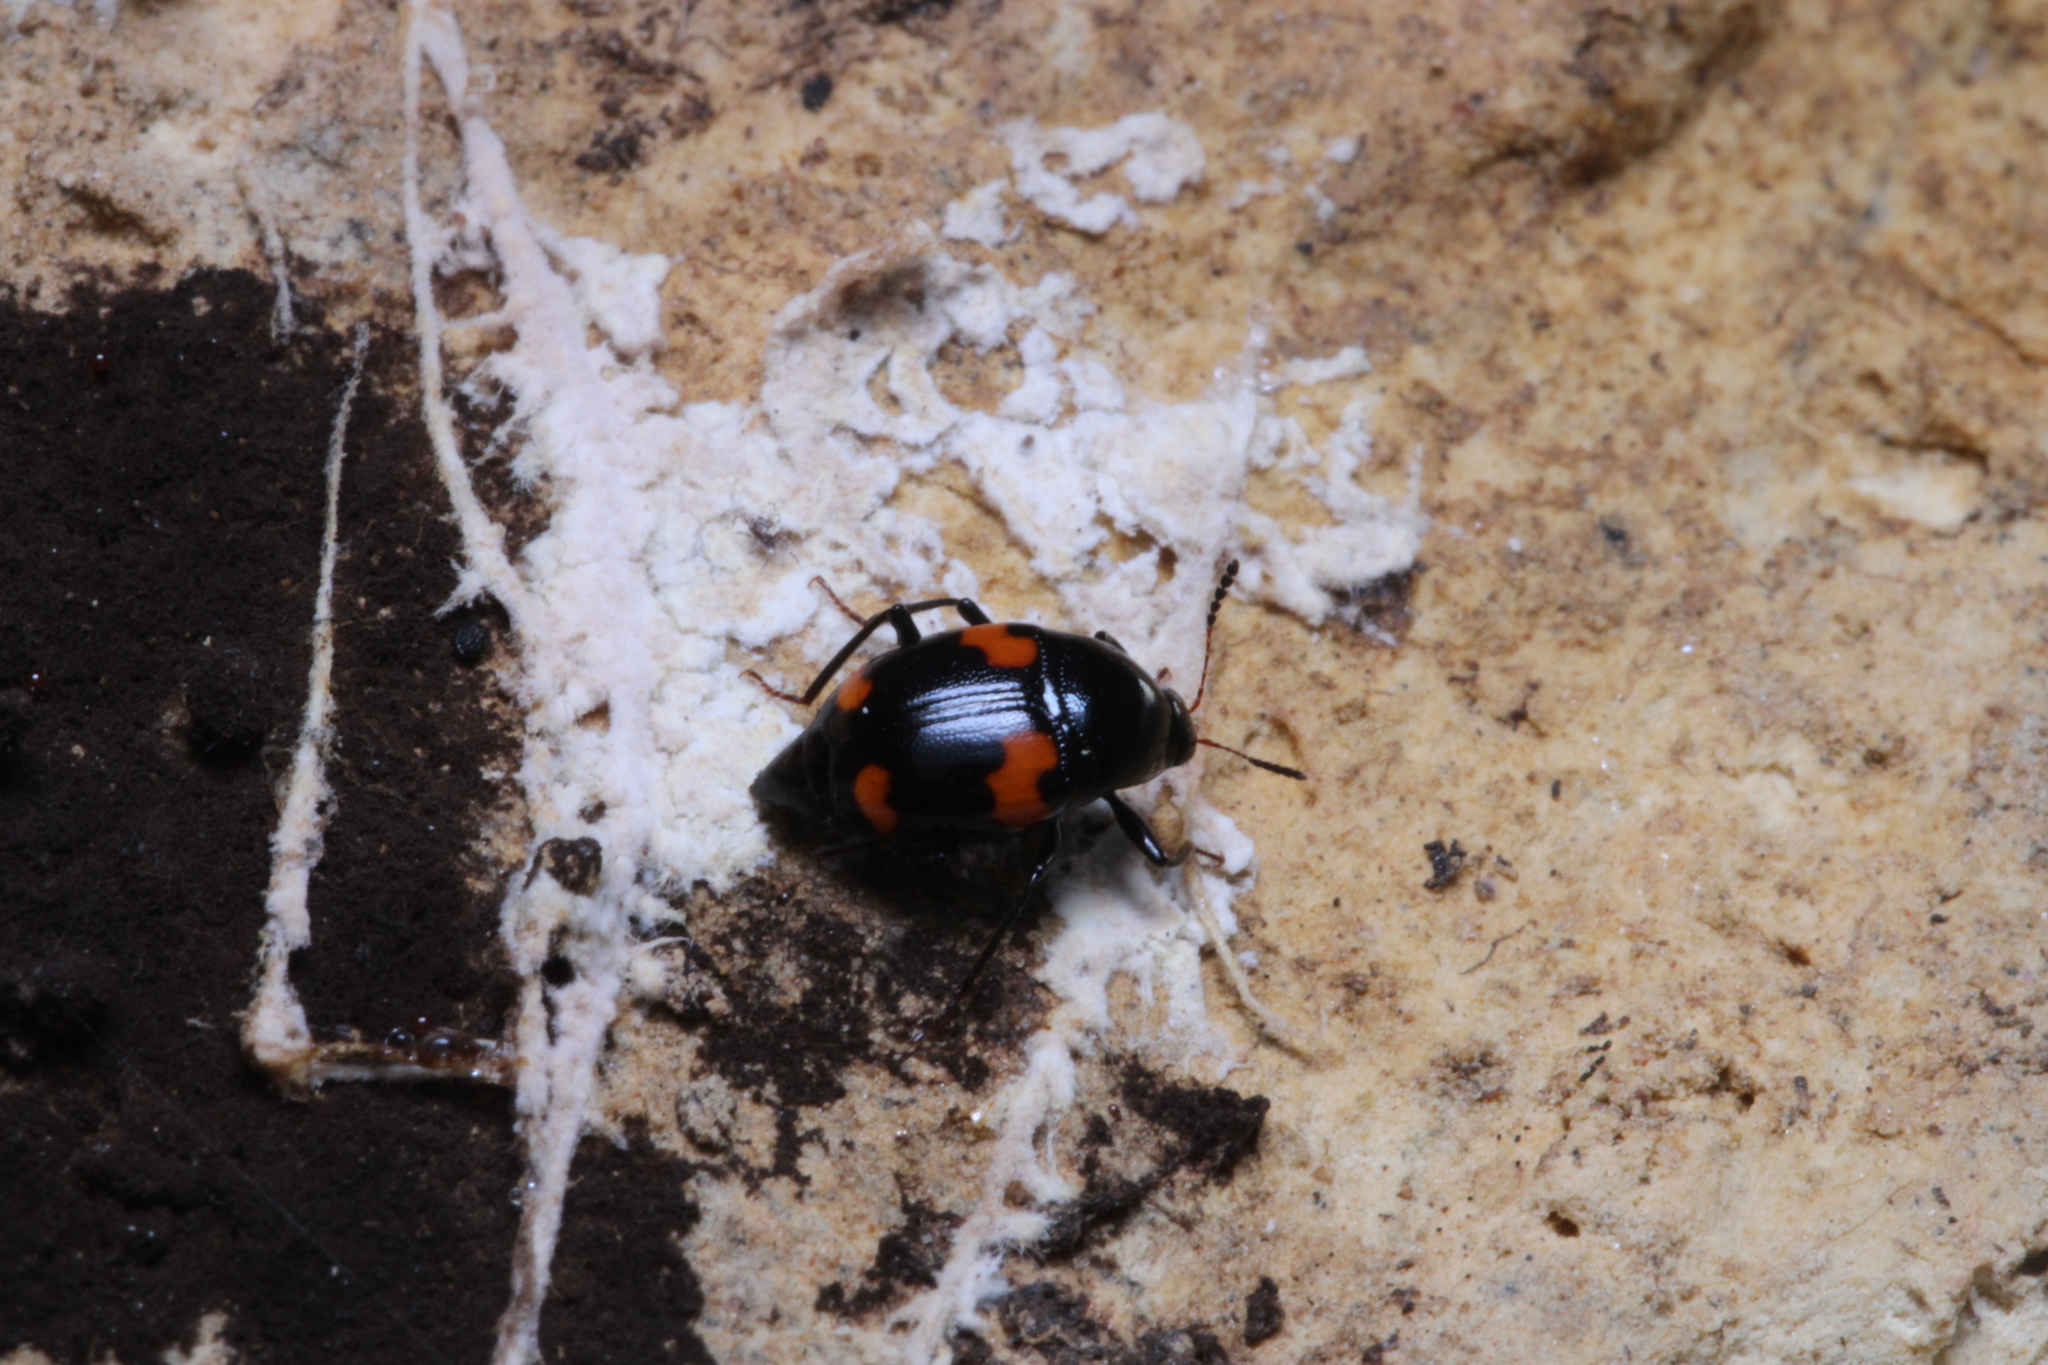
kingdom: Animalia
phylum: Arthropoda
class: Insecta
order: Coleoptera
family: Staphylinidae
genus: Scaphidium
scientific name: Scaphidium quadrimaculatum
